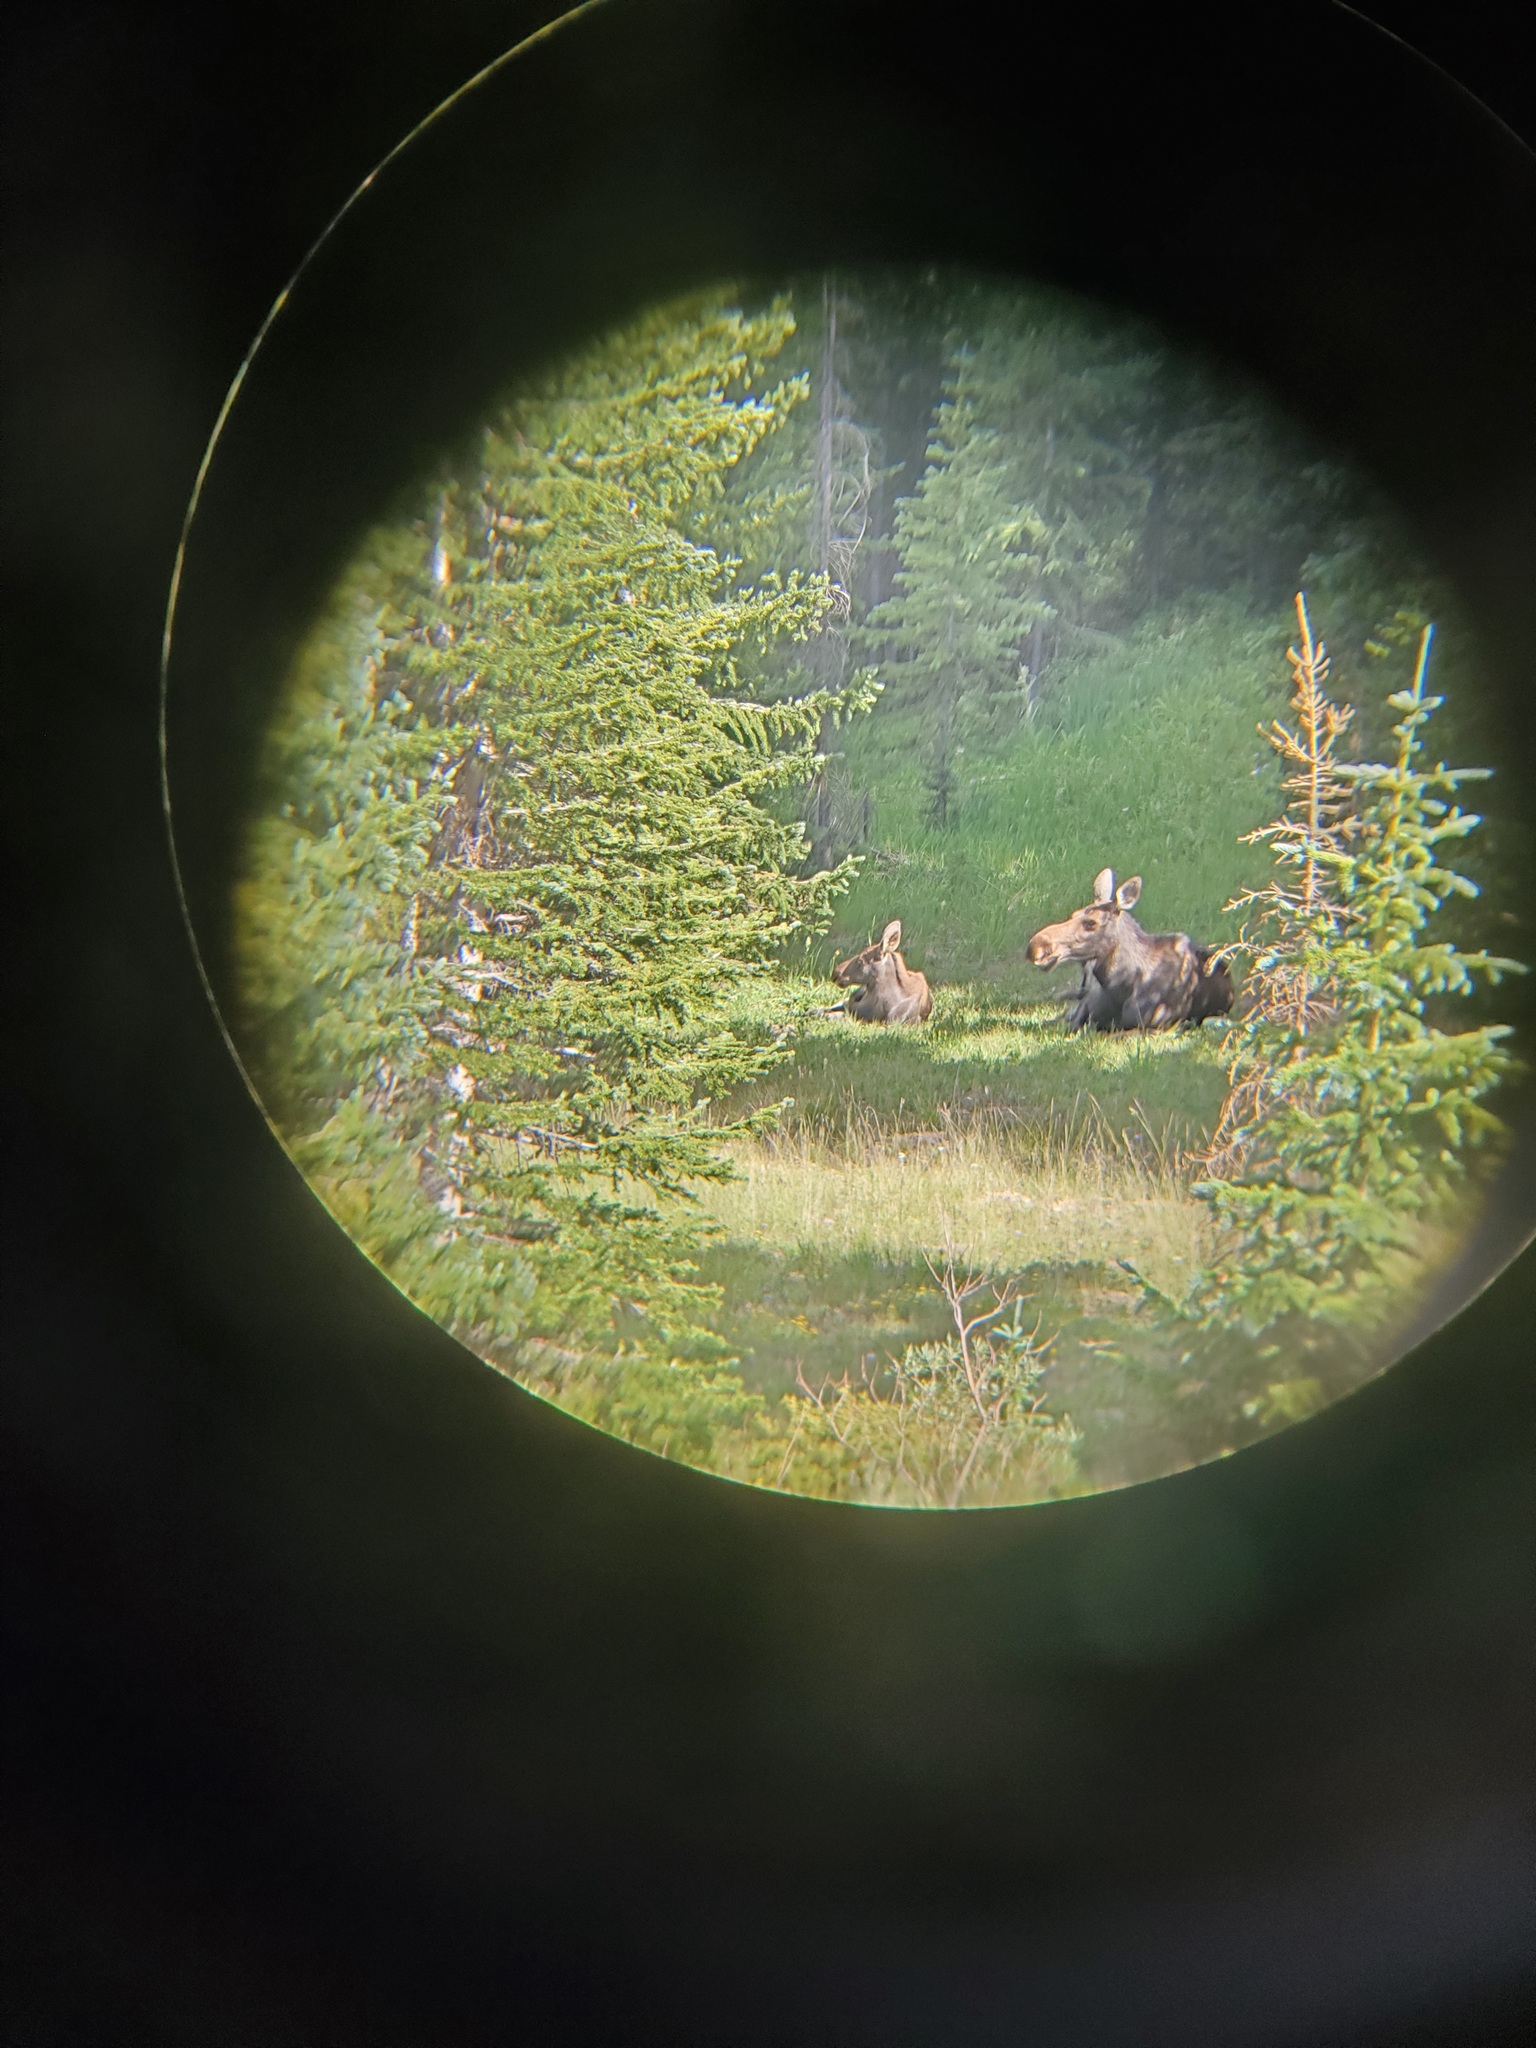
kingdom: Animalia
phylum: Chordata
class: Mammalia
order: Artiodactyla
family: Cervidae
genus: Alces
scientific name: Alces americanus
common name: Moose
